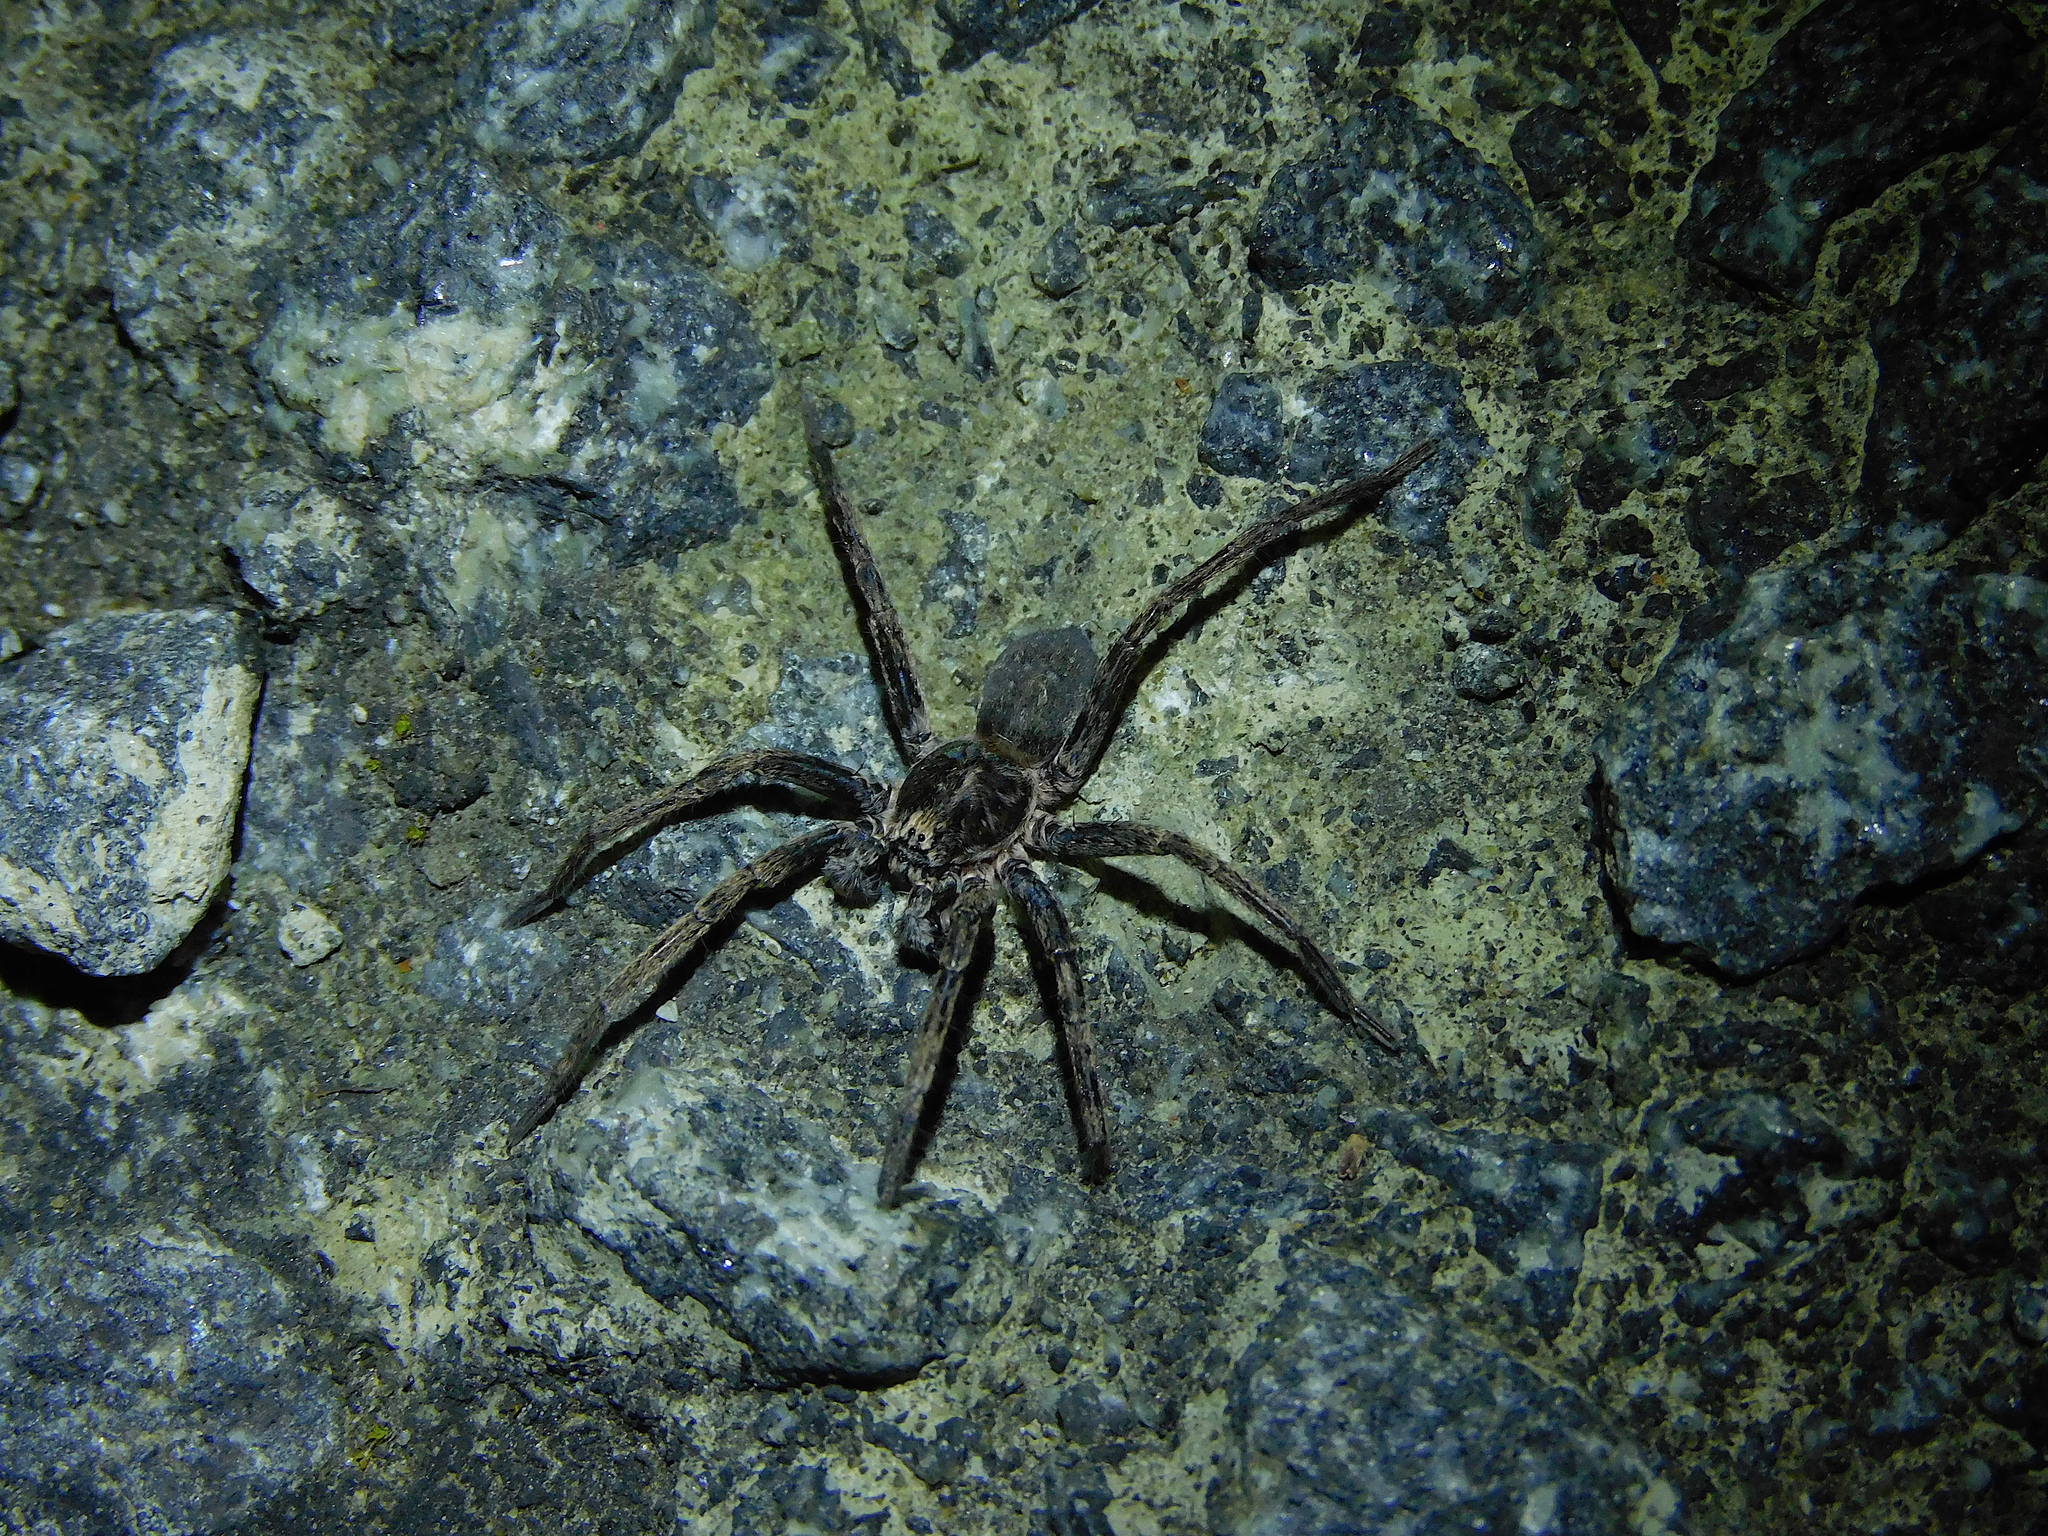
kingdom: Animalia
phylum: Arthropoda
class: Arachnida
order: Araneae
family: Miturgidae
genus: Mituliodon
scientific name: Mituliodon tarantulinus
